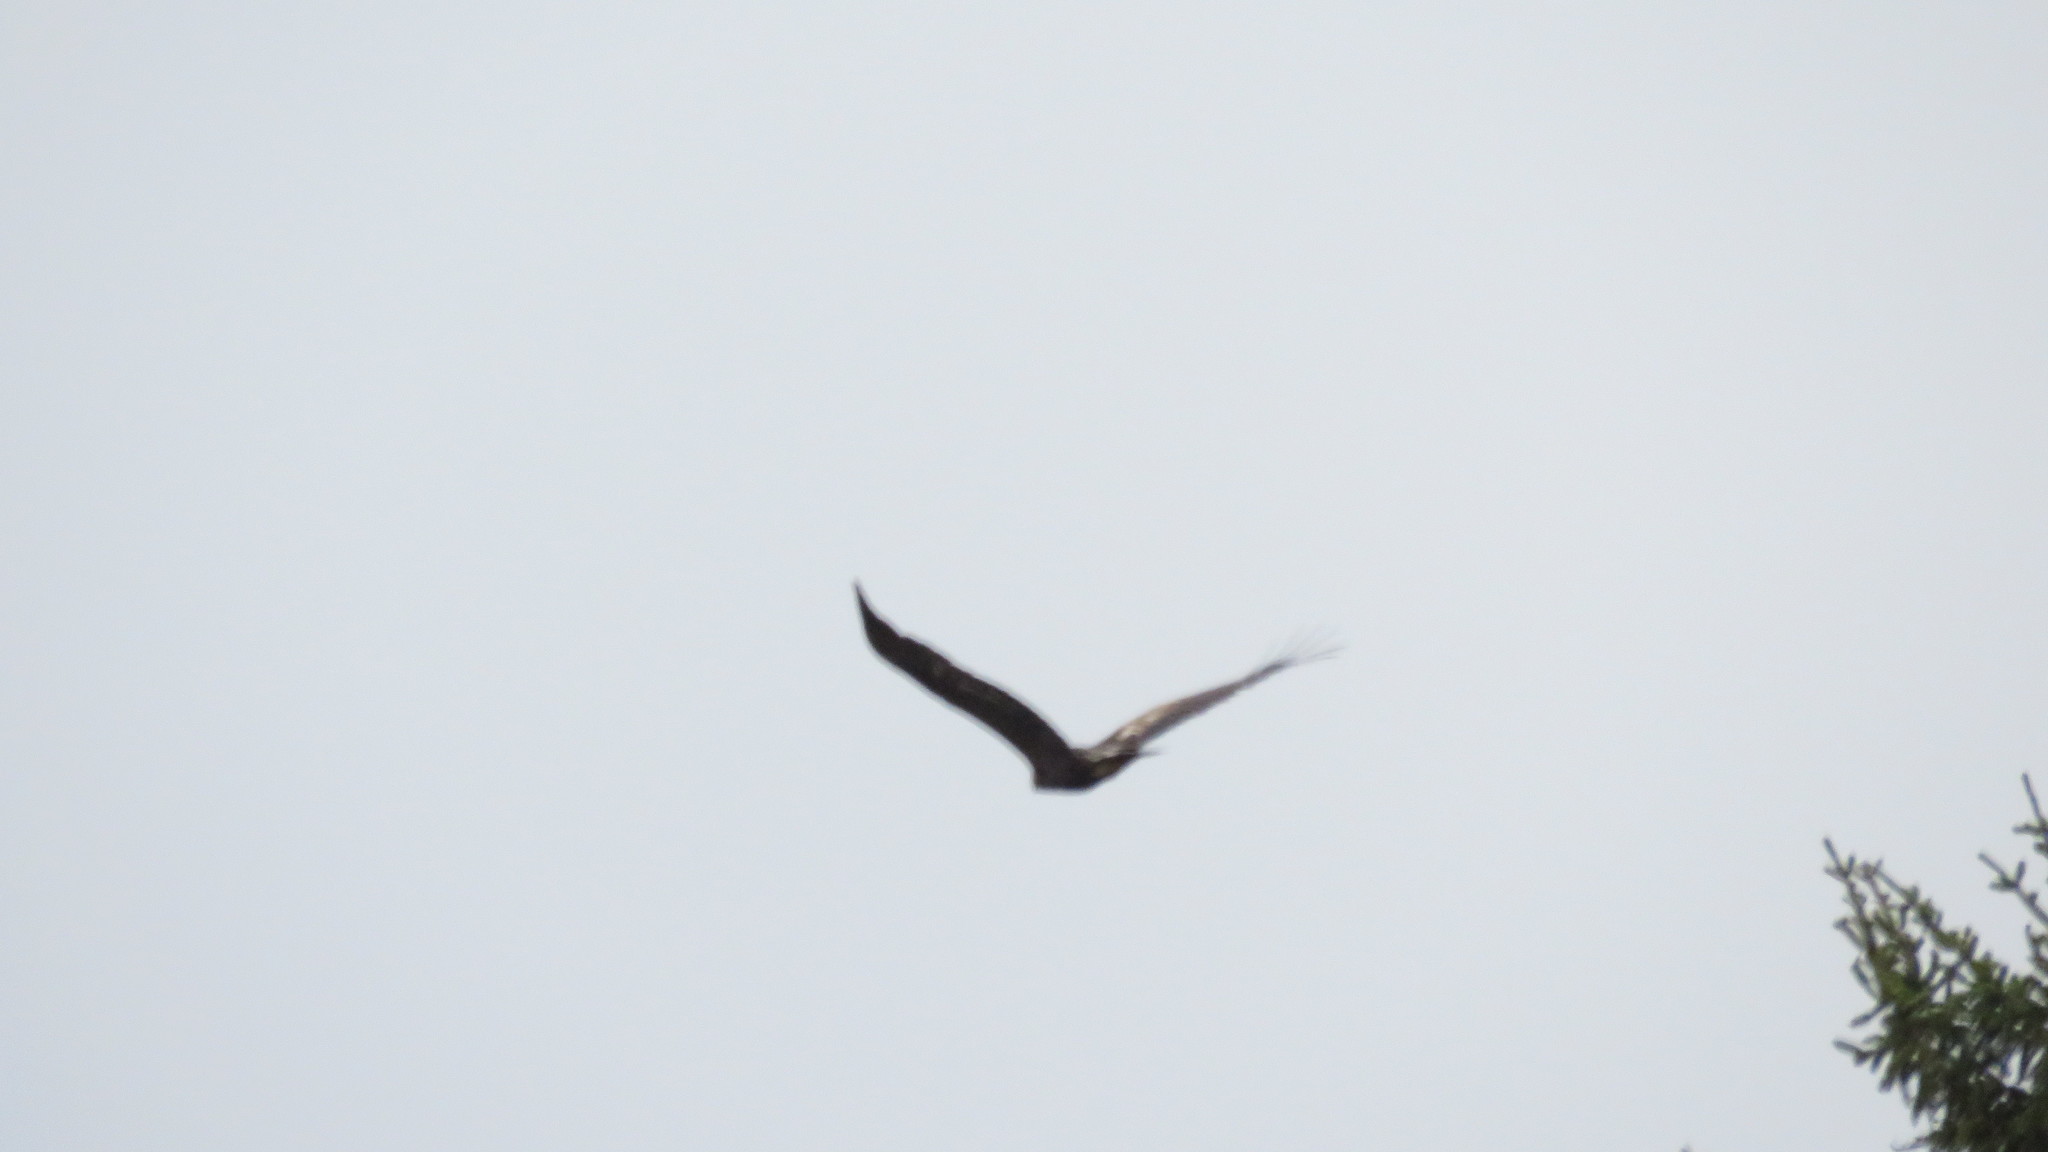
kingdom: Animalia
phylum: Chordata
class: Aves
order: Accipitriformes
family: Accipitridae
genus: Aquila
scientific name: Aquila chrysaetos
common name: Golden eagle
